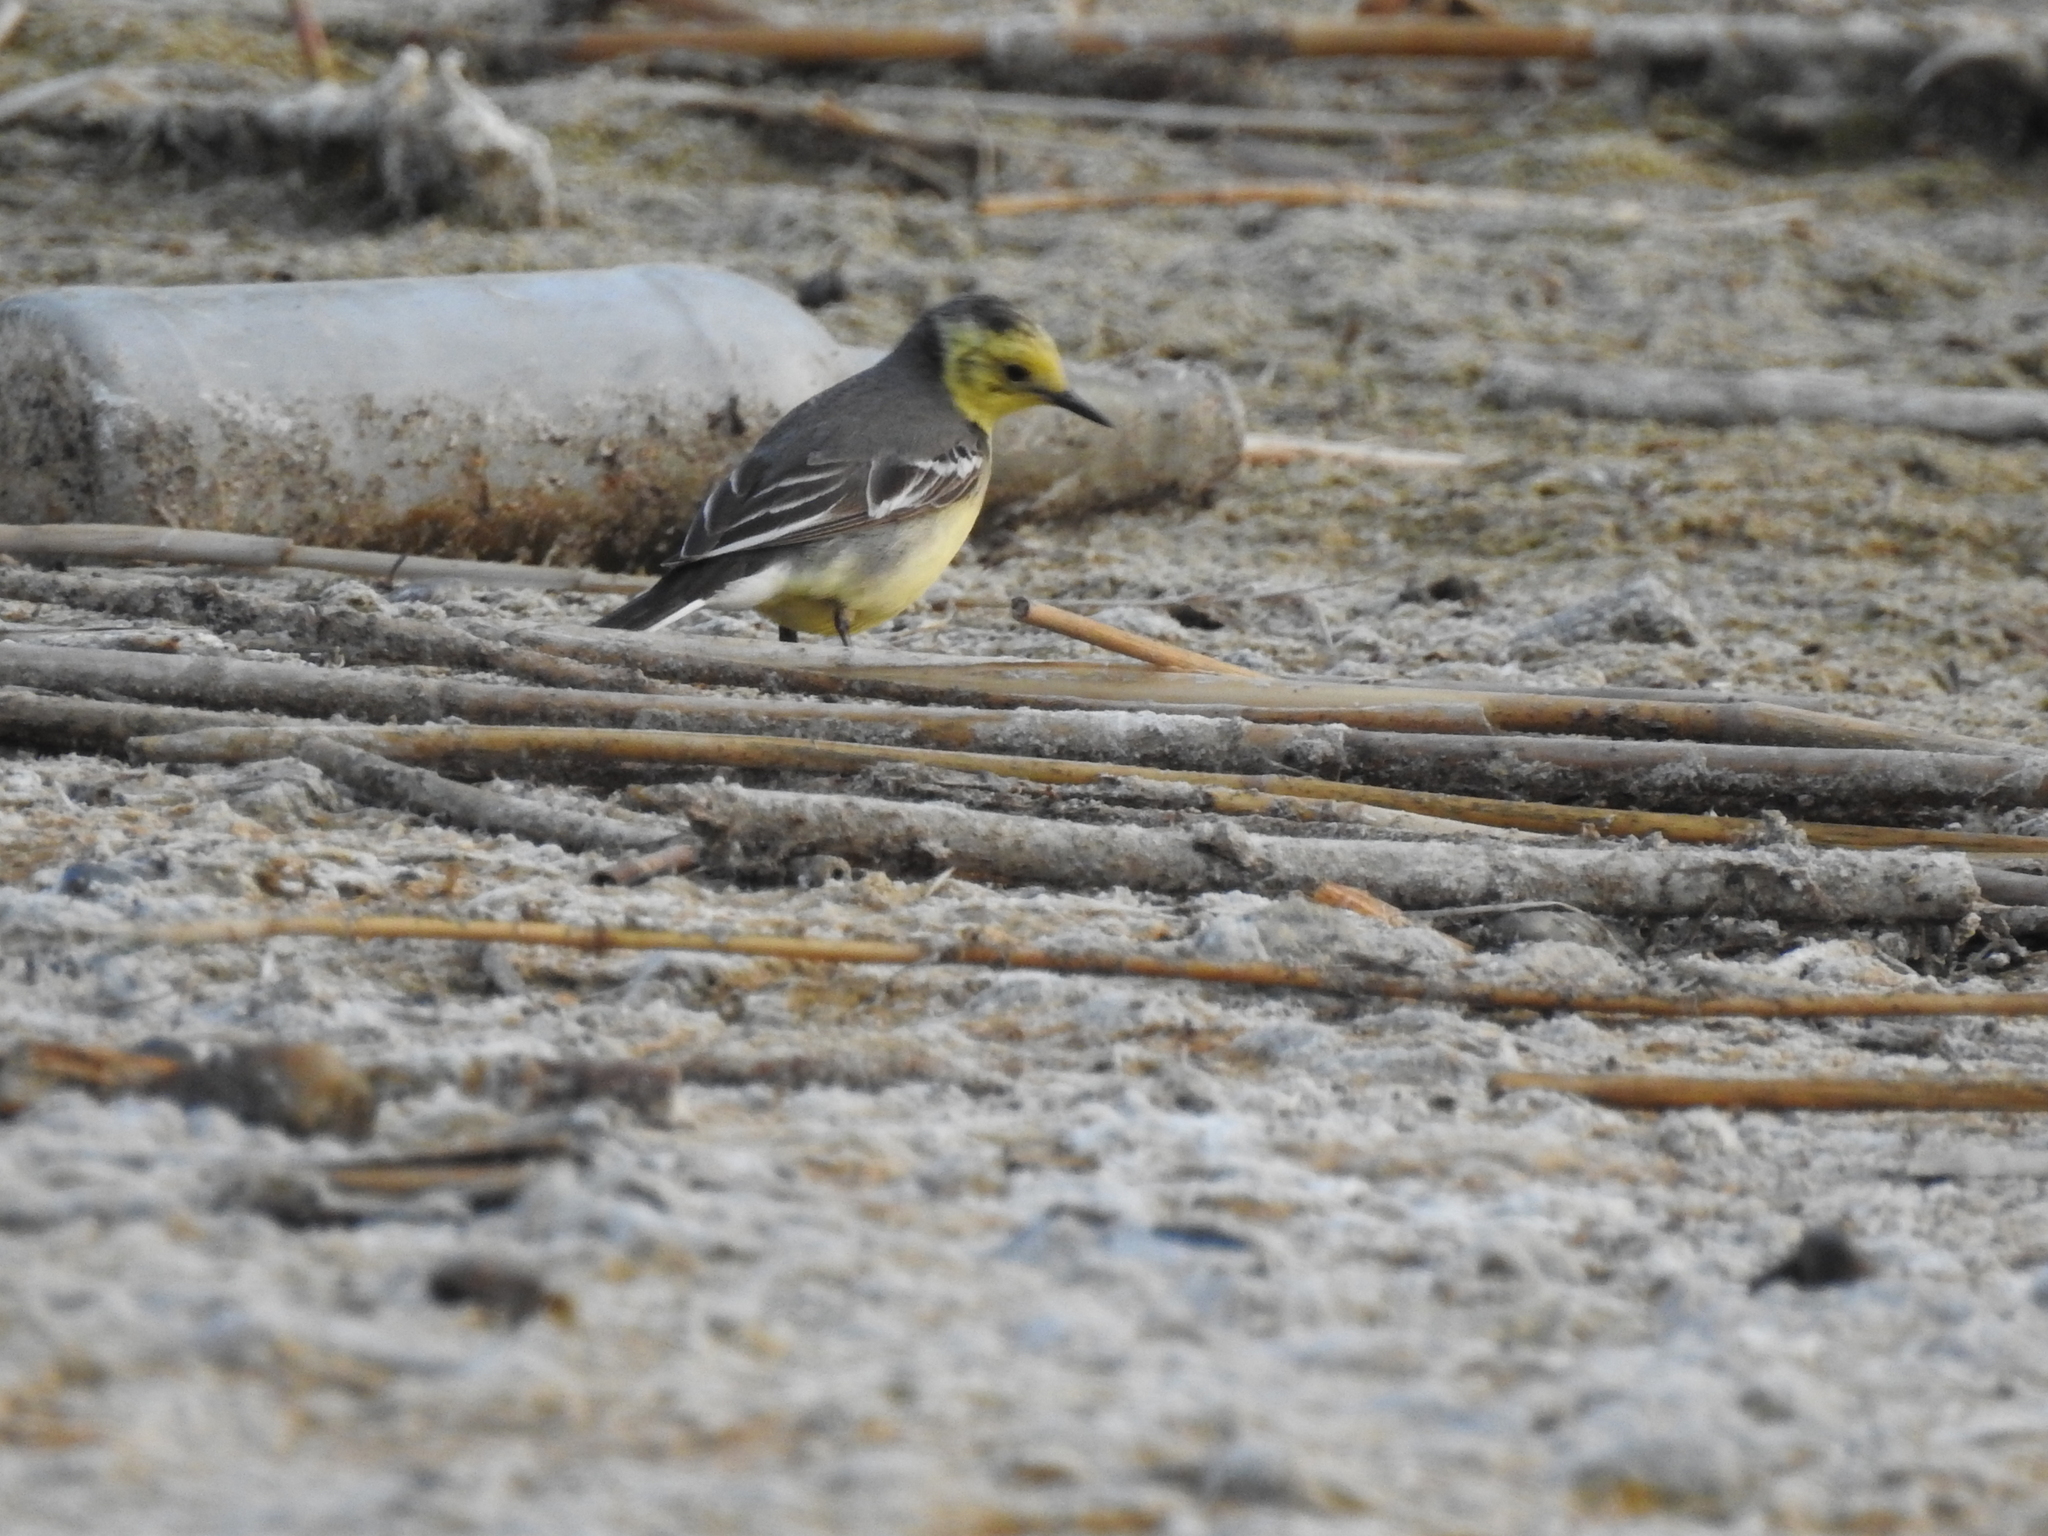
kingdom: Animalia
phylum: Chordata
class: Aves
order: Passeriformes
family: Motacillidae
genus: Motacilla
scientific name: Motacilla citreola
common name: Citrine wagtail
